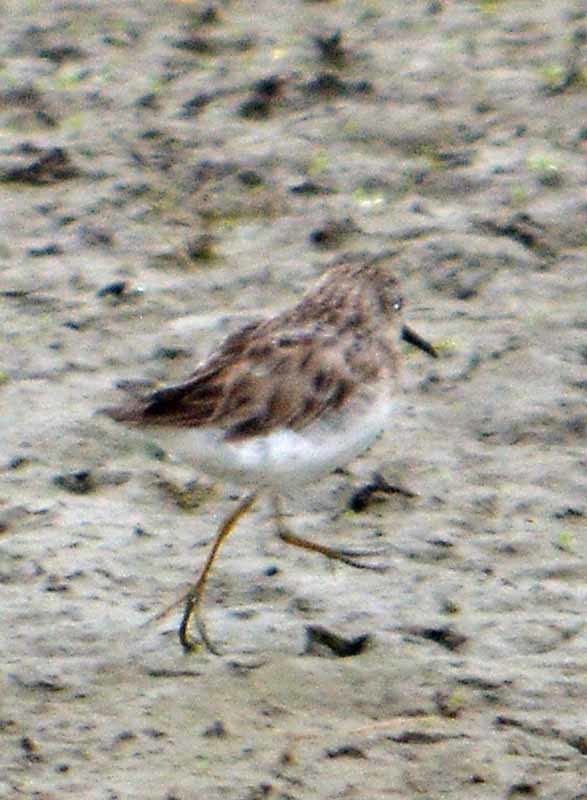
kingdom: Animalia
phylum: Chordata
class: Aves
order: Charadriiformes
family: Scolopacidae
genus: Calidris
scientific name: Calidris minutilla
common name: Least sandpiper
